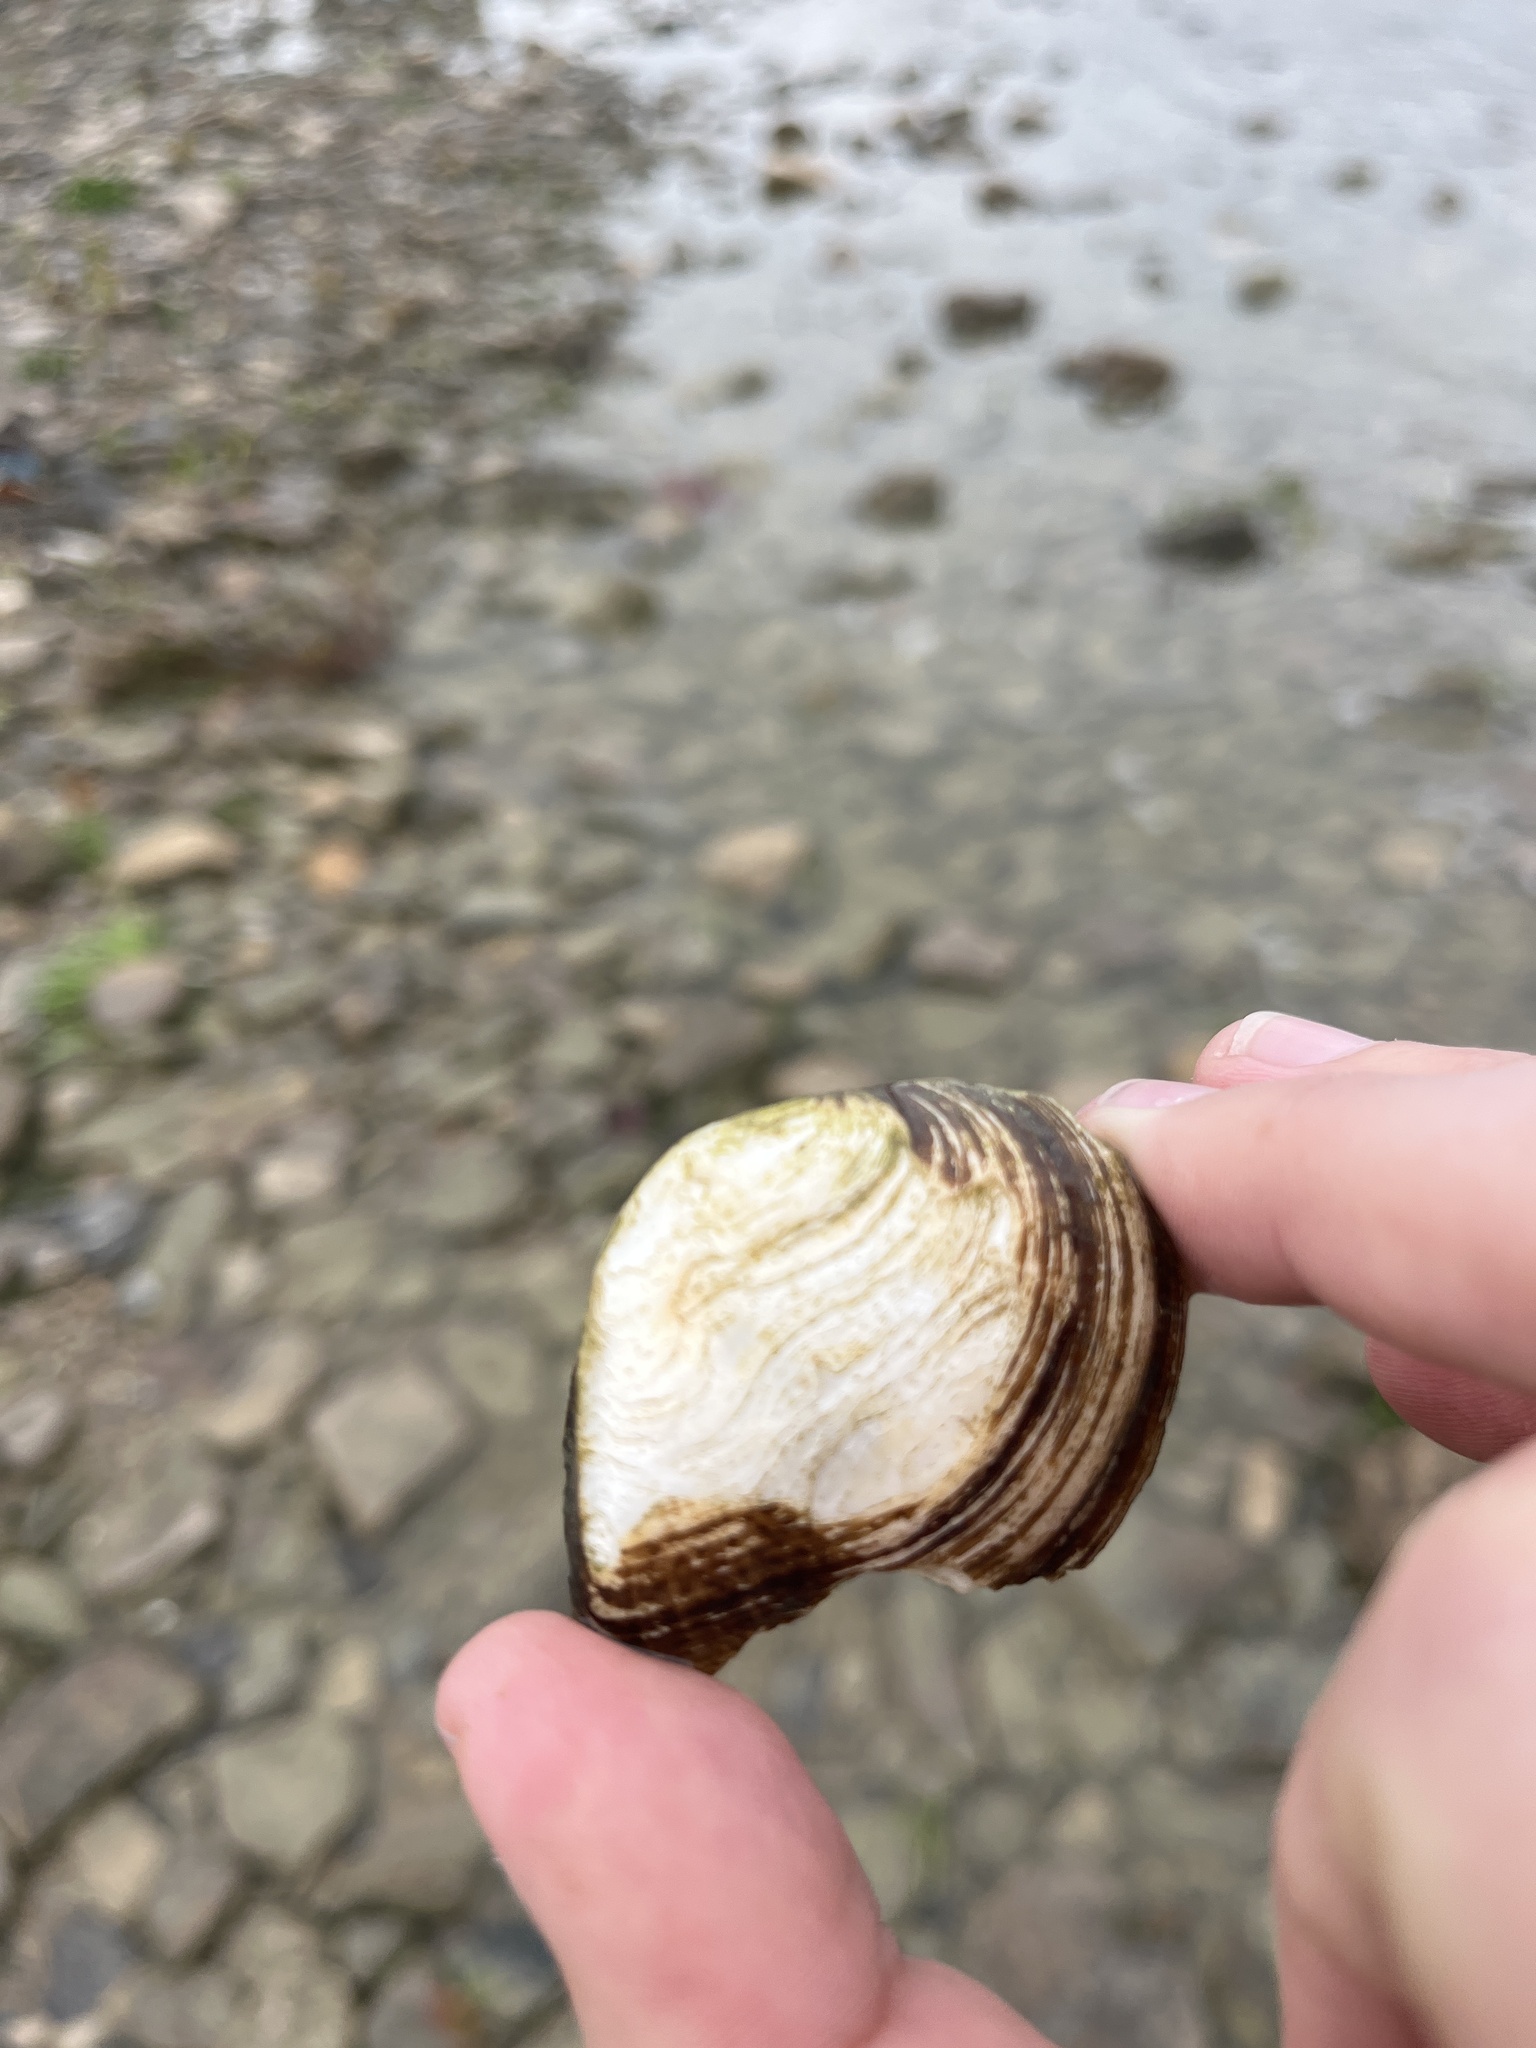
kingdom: Animalia
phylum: Mollusca
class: Bivalvia
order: Unionida
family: Unionidae
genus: Truncilla
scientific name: Truncilla truncata
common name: Deertoe
